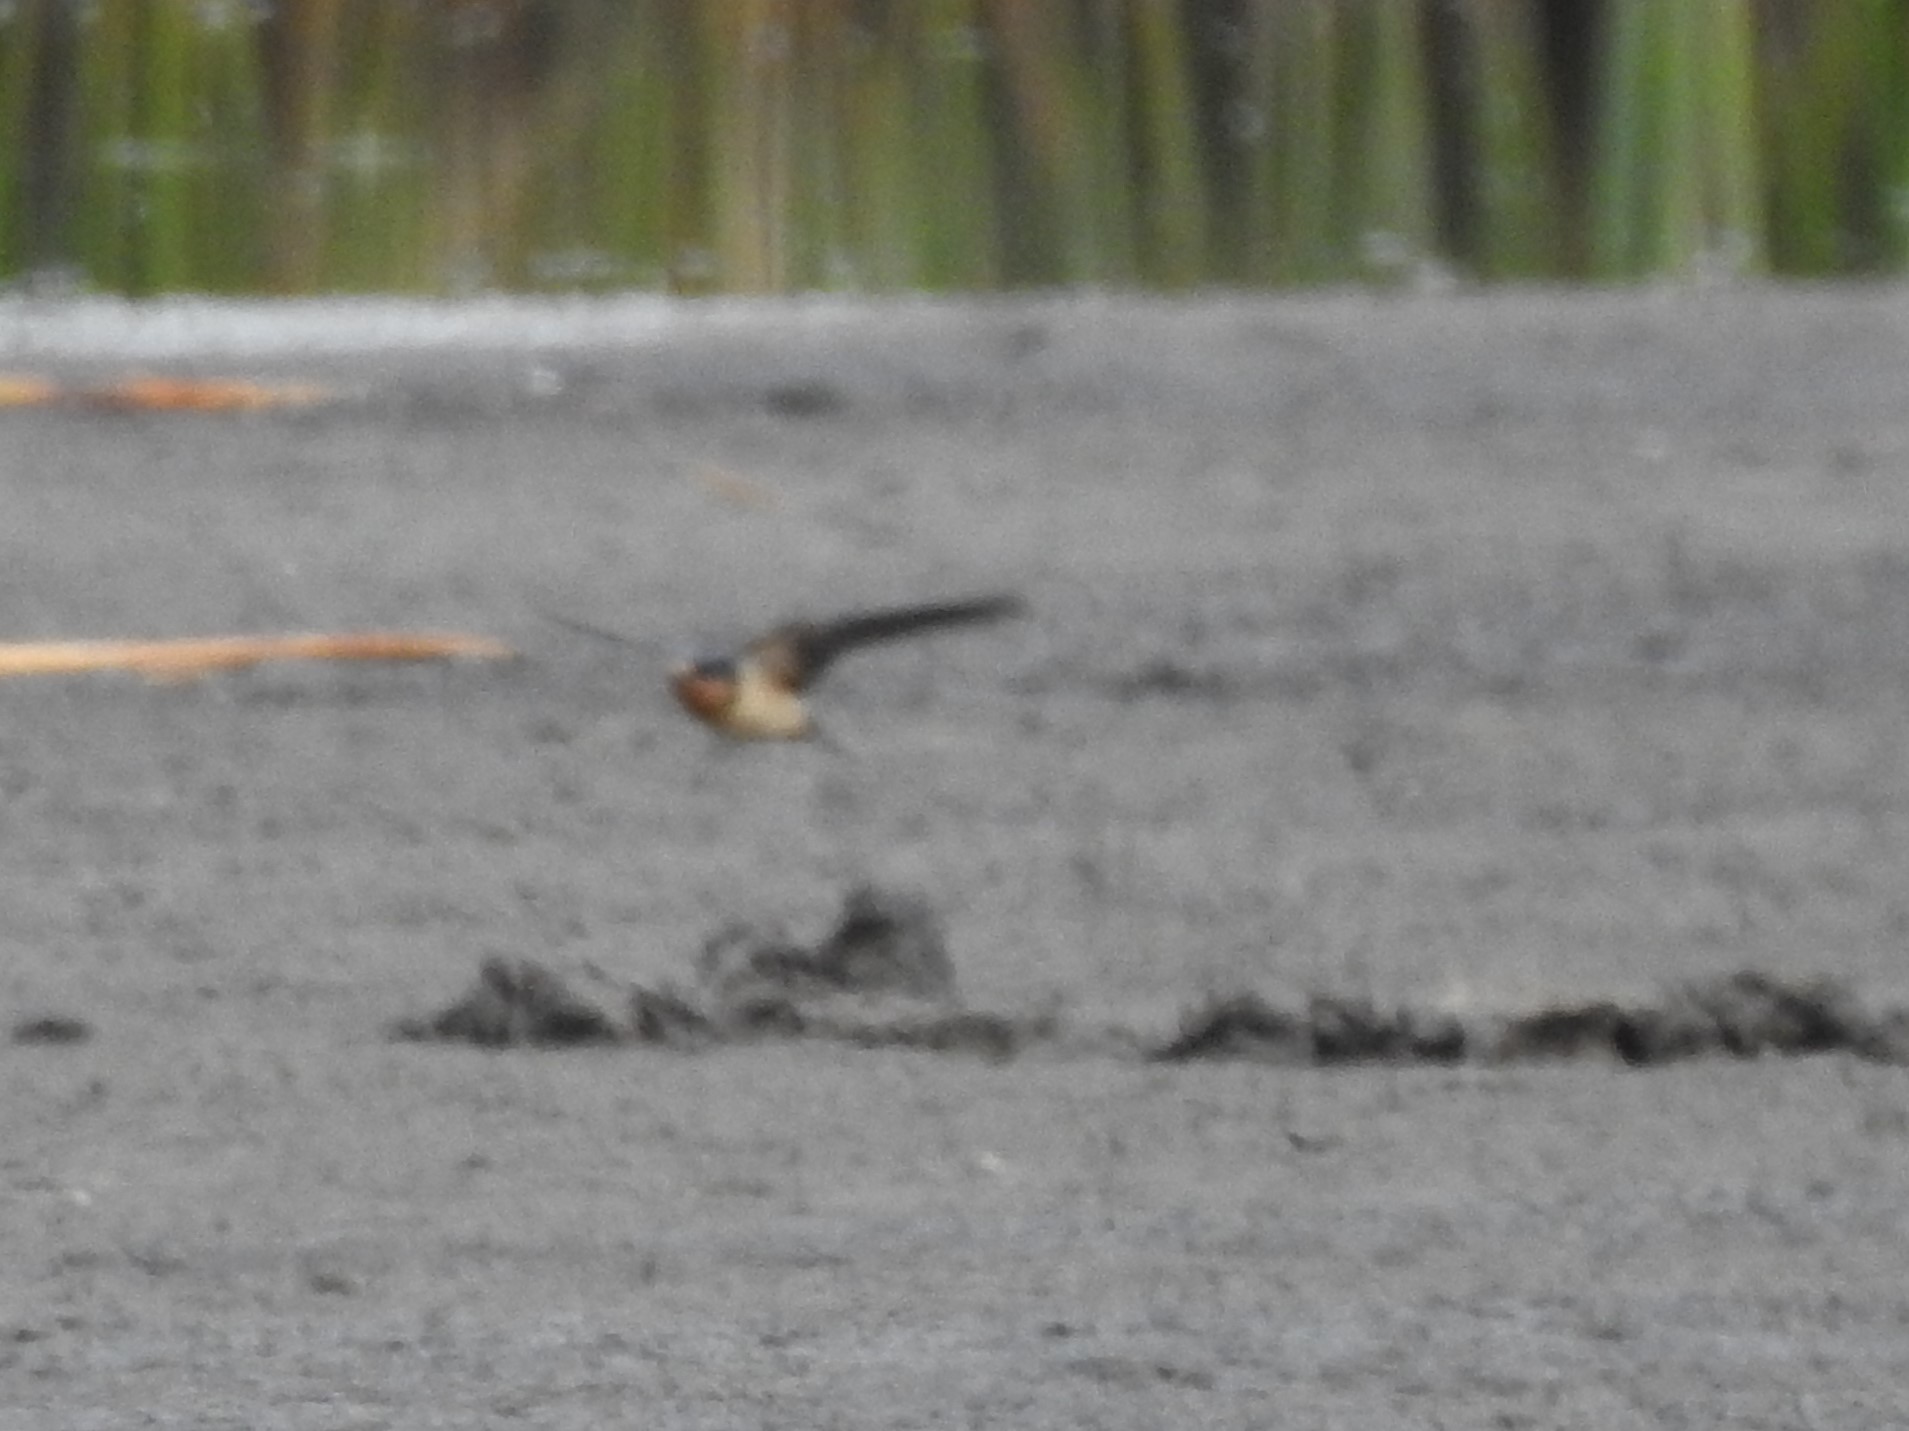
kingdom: Animalia
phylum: Chordata
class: Aves
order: Passeriformes
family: Hirundinidae
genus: Hirundo
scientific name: Hirundo rustica
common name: Barn swallow
